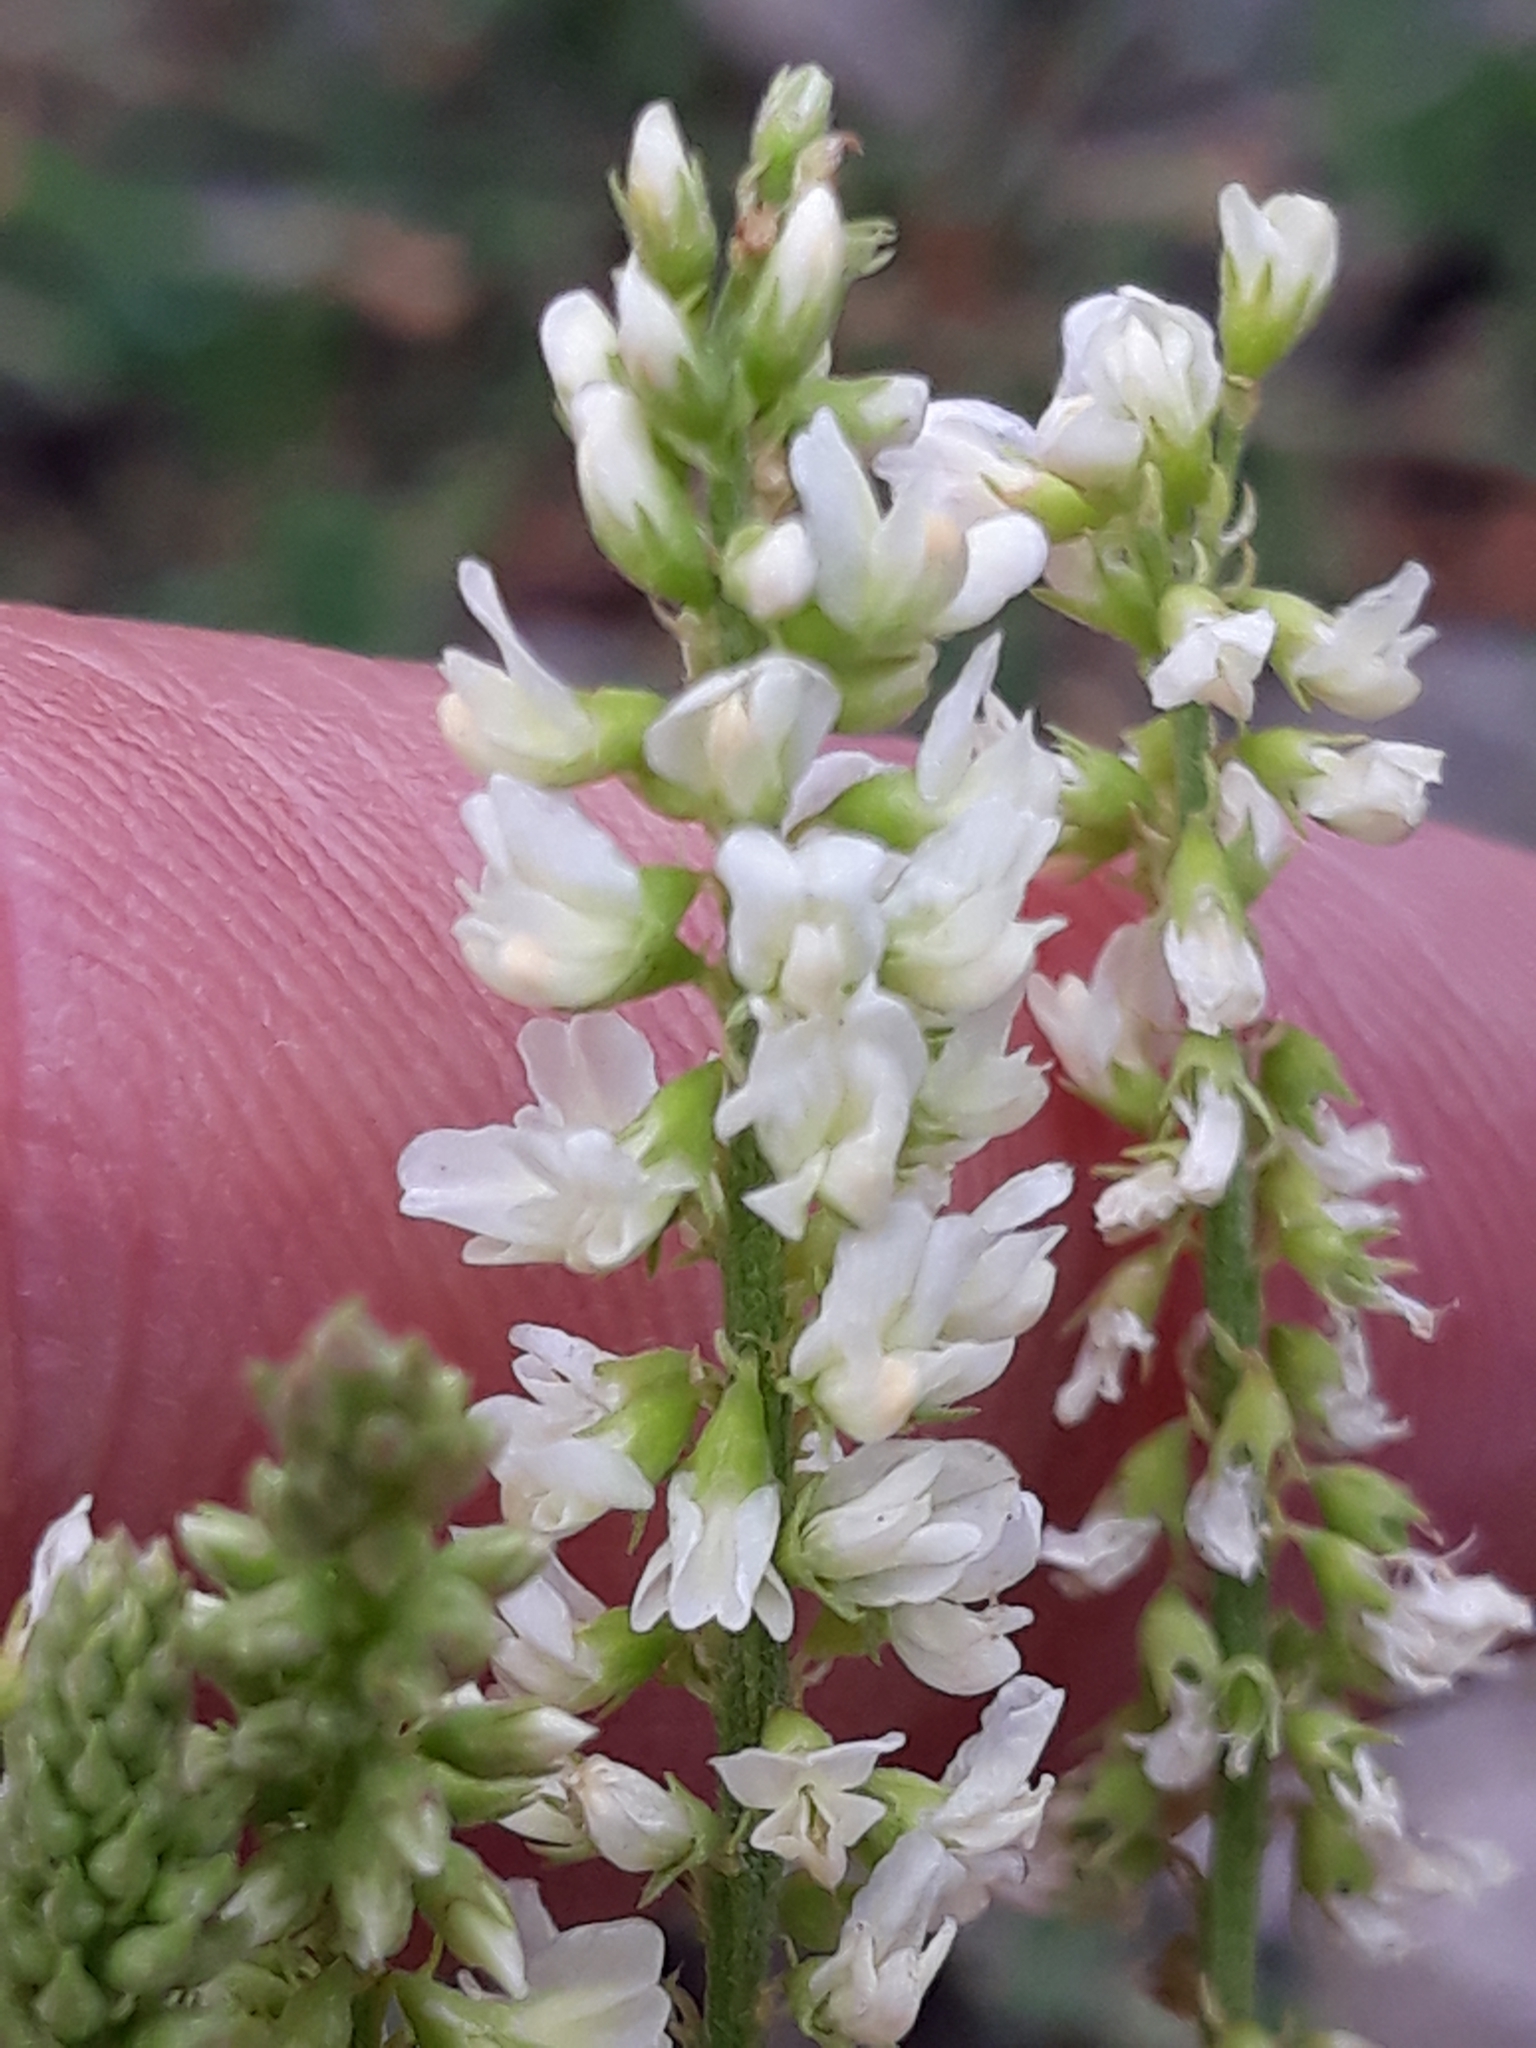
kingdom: Plantae
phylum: Tracheophyta
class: Magnoliopsida
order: Fabales
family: Fabaceae
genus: Melilotus
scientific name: Melilotus albus
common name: White melilot
